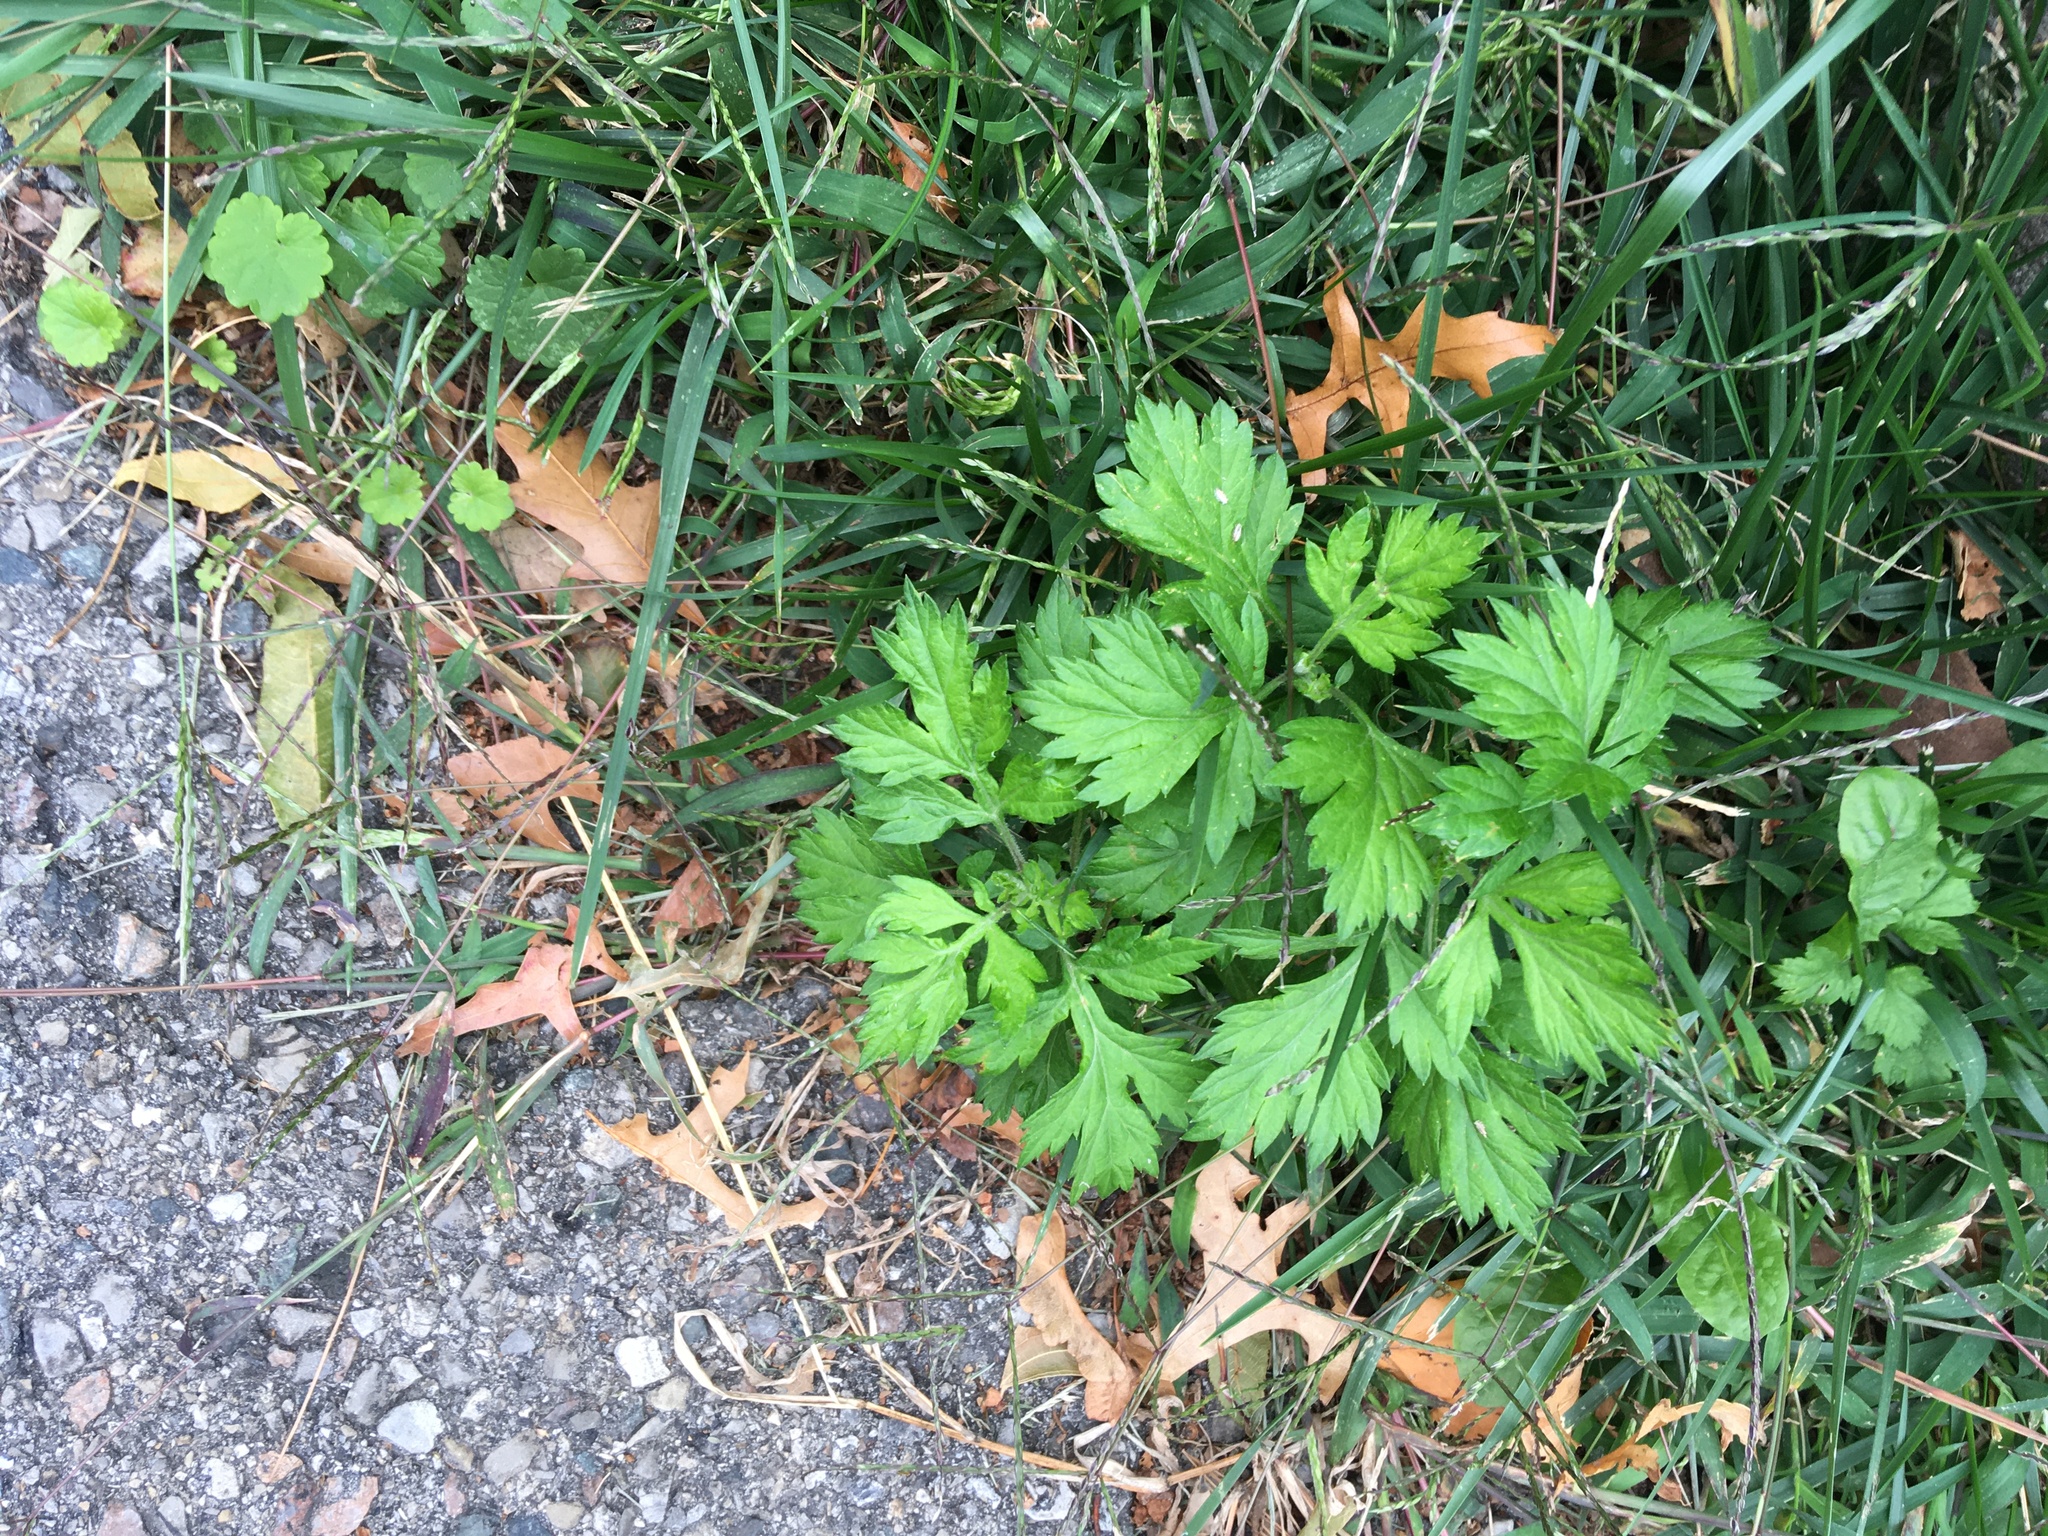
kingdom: Plantae
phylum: Tracheophyta
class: Magnoliopsida
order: Asterales
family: Asteraceae
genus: Artemisia
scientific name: Artemisia vulgaris
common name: Mugwort
